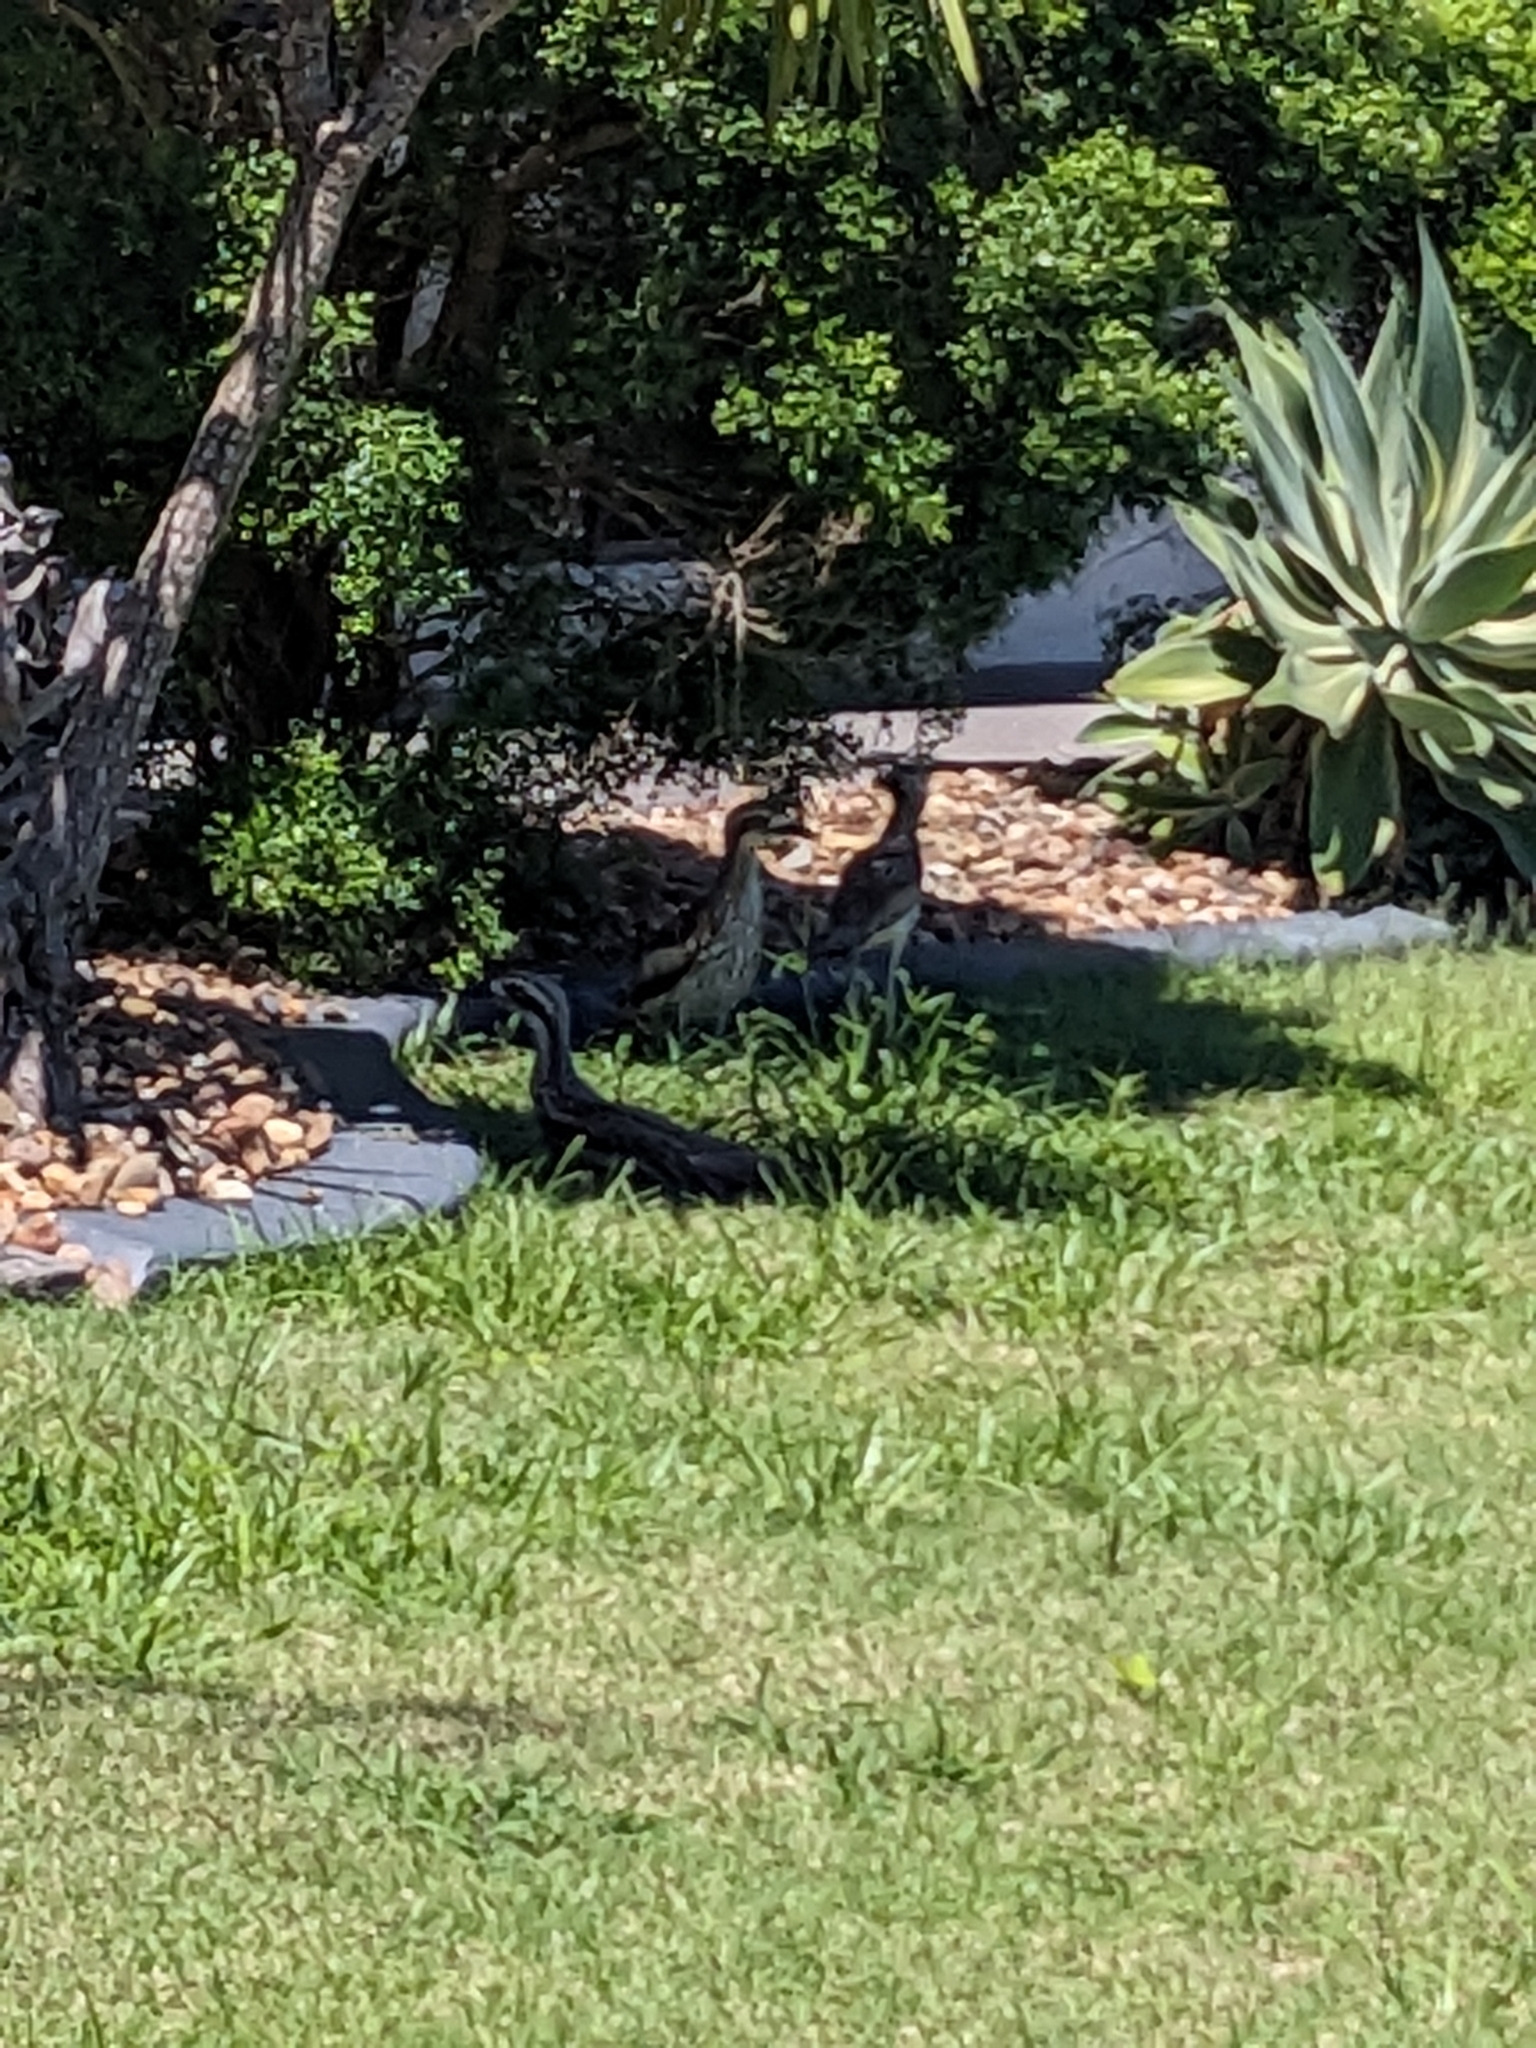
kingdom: Animalia
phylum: Chordata
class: Aves
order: Charadriiformes
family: Burhinidae
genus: Burhinus
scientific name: Burhinus grallarius
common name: Bush stone-curlew
